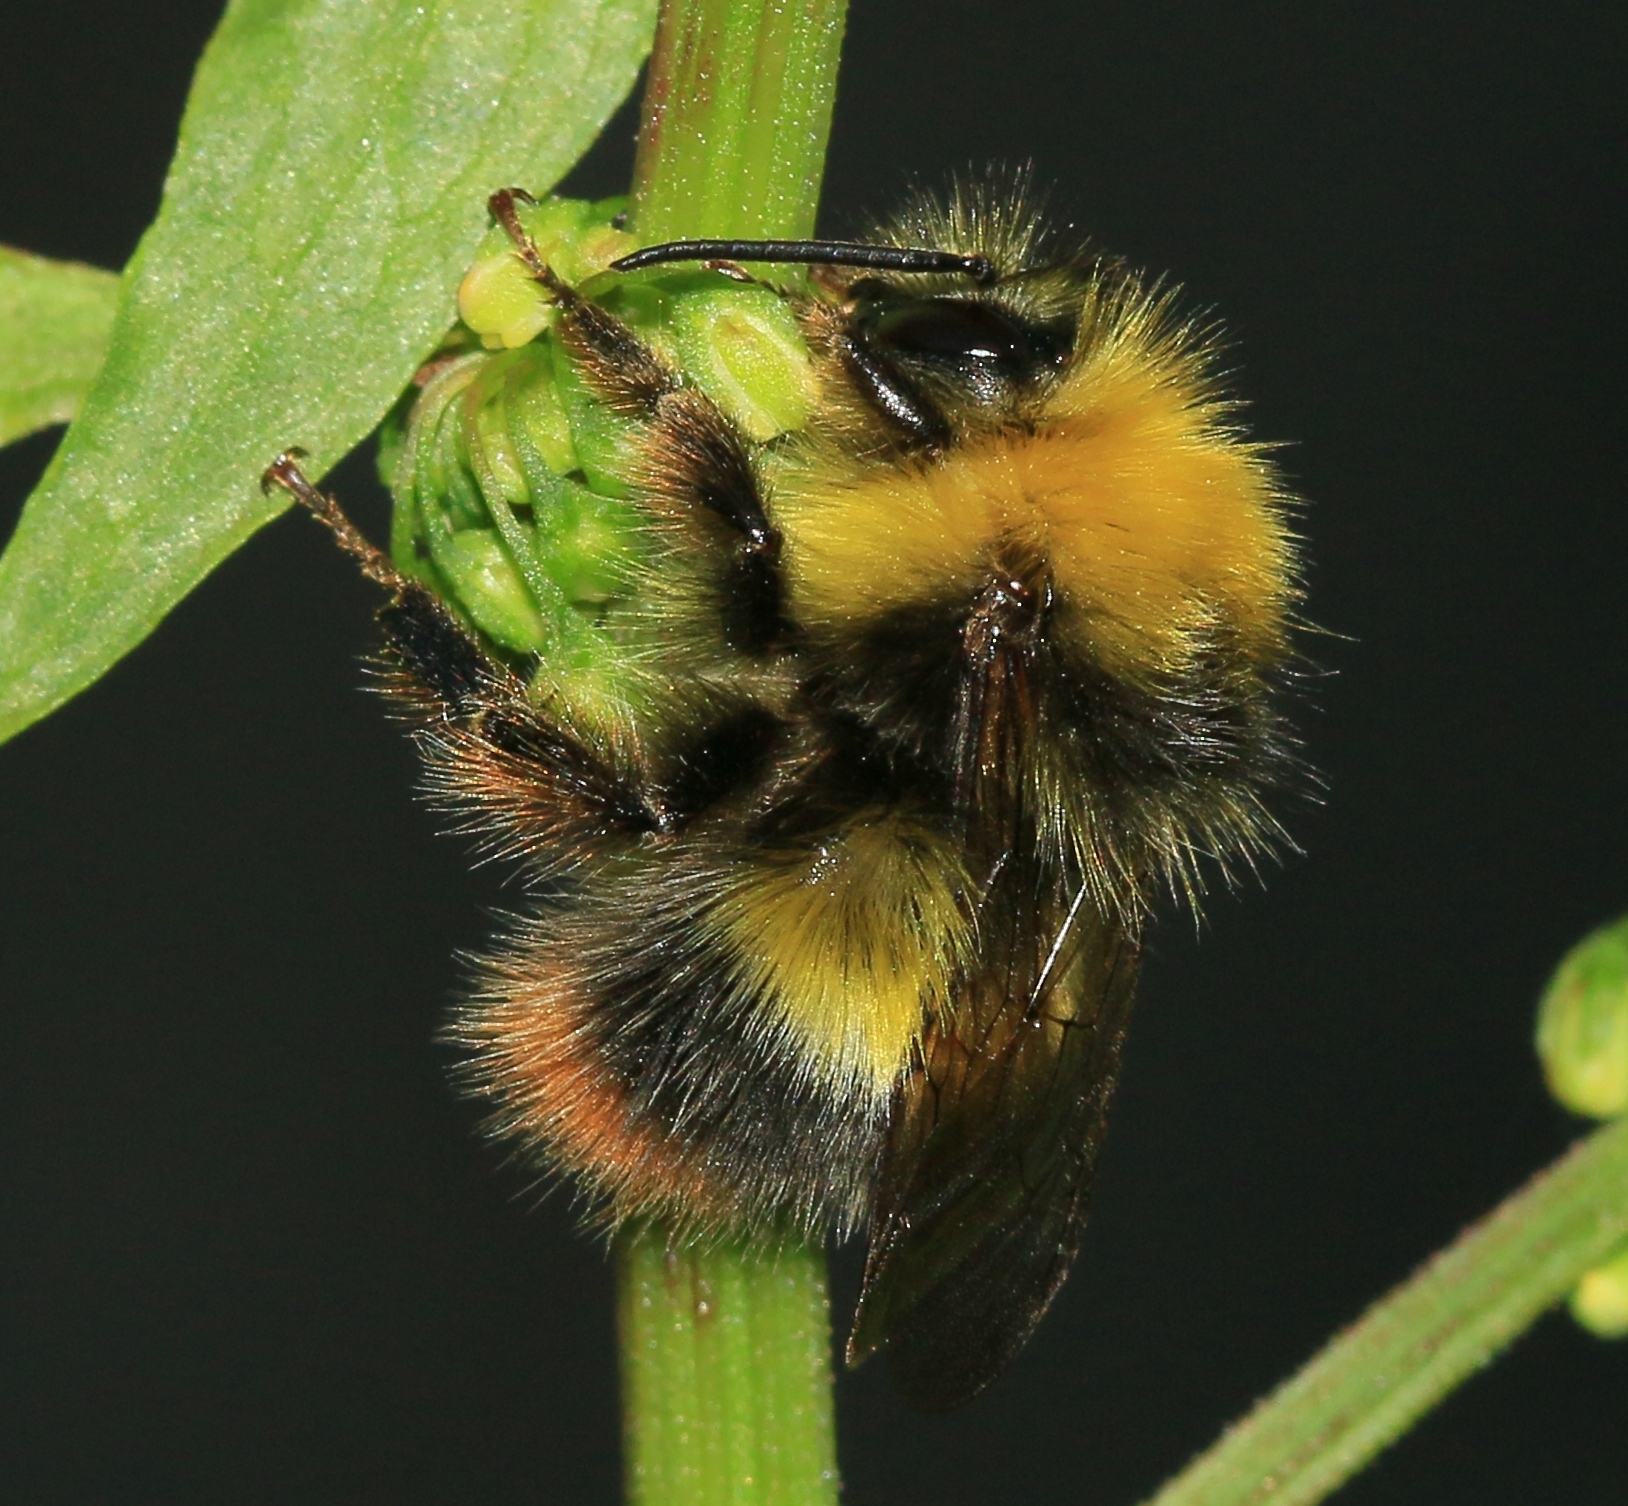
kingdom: Animalia
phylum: Arthropoda
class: Insecta
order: Hymenoptera
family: Apidae
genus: Bombus
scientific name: Bombus pratorum
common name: Early humble-bee
